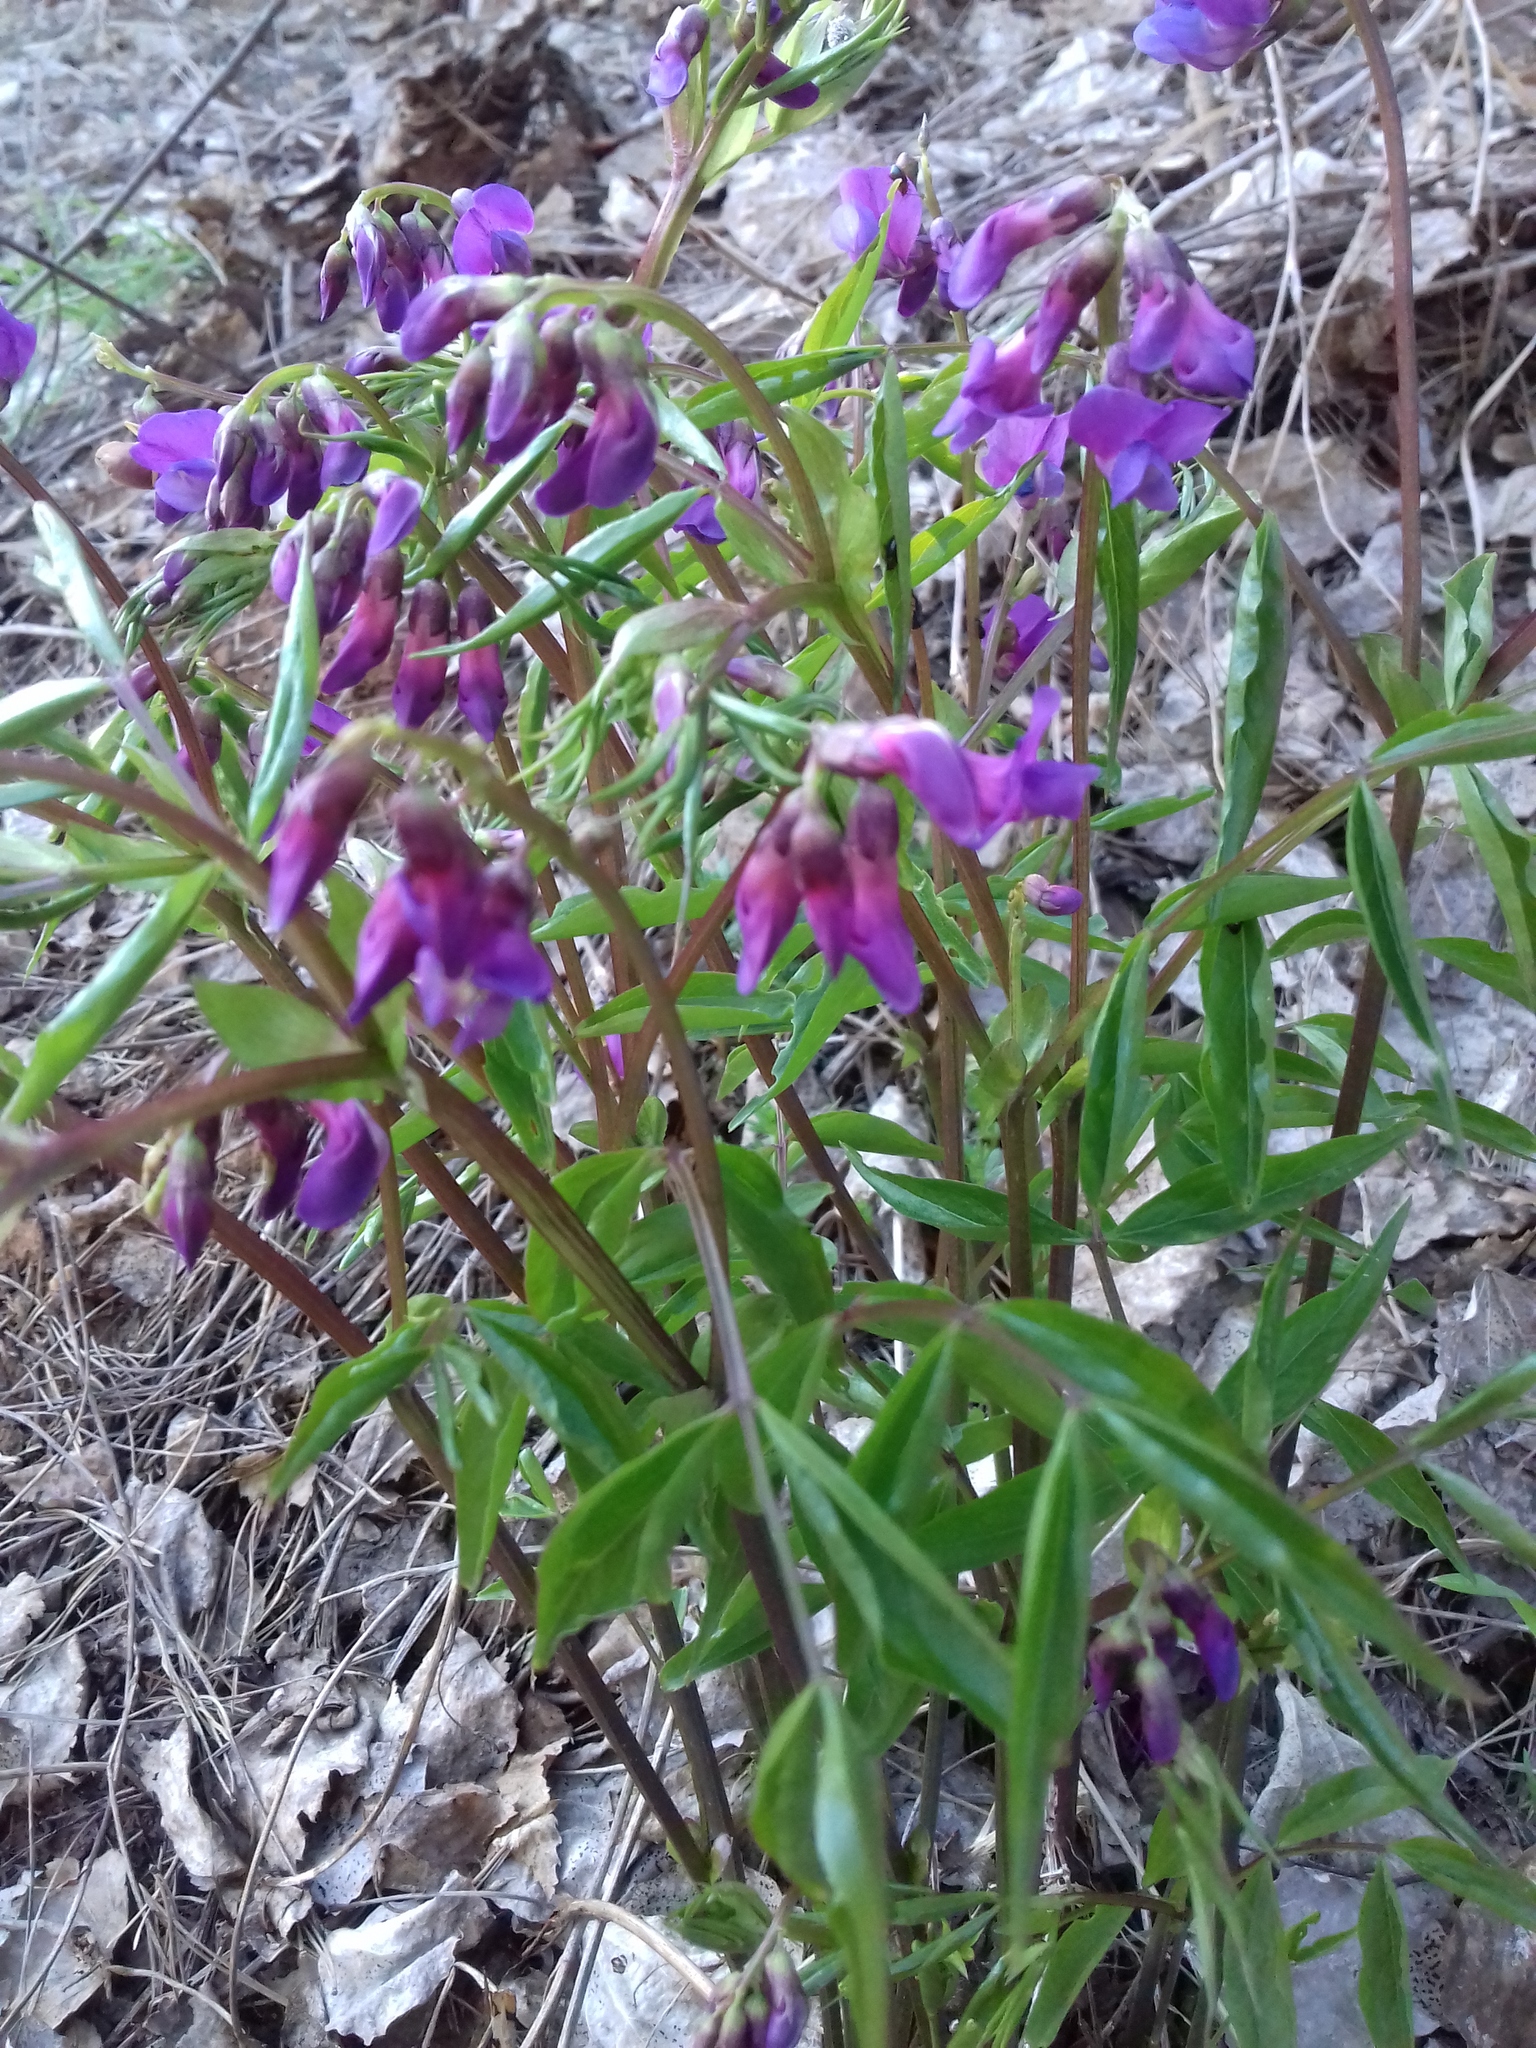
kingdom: Plantae
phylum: Tracheophyta
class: Magnoliopsida
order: Fabales
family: Fabaceae
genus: Lathyrus
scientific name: Lathyrus vernus
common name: Spring pea
